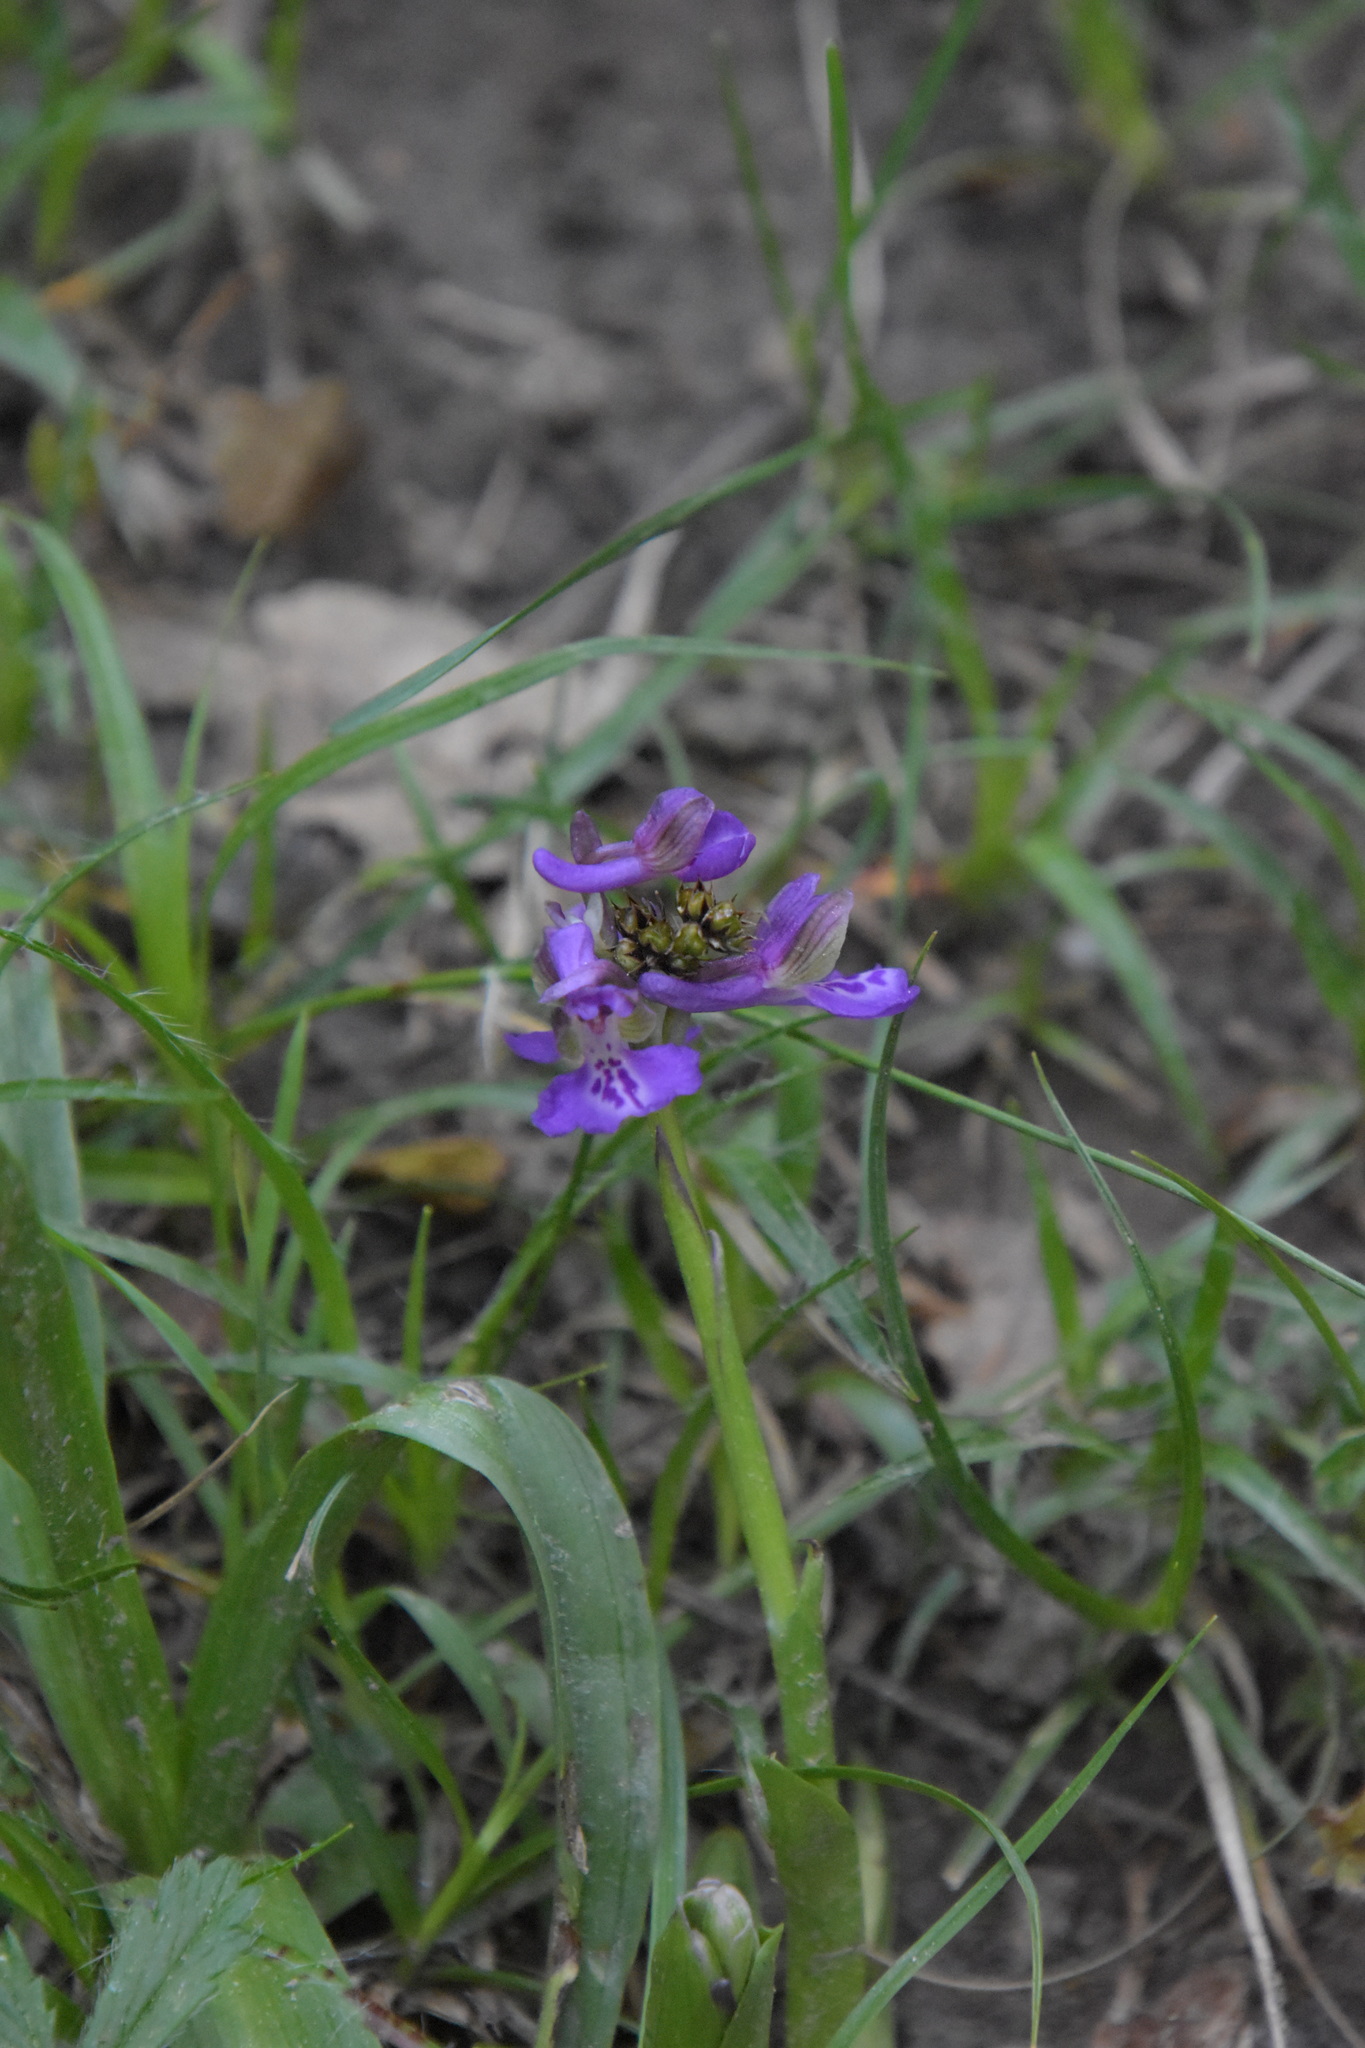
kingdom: Plantae
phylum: Tracheophyta
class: Liliopsida
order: Asparagales
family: Orchidaceae
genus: Anacamptis
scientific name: Anacamptis morio
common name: Green-winged orchid
